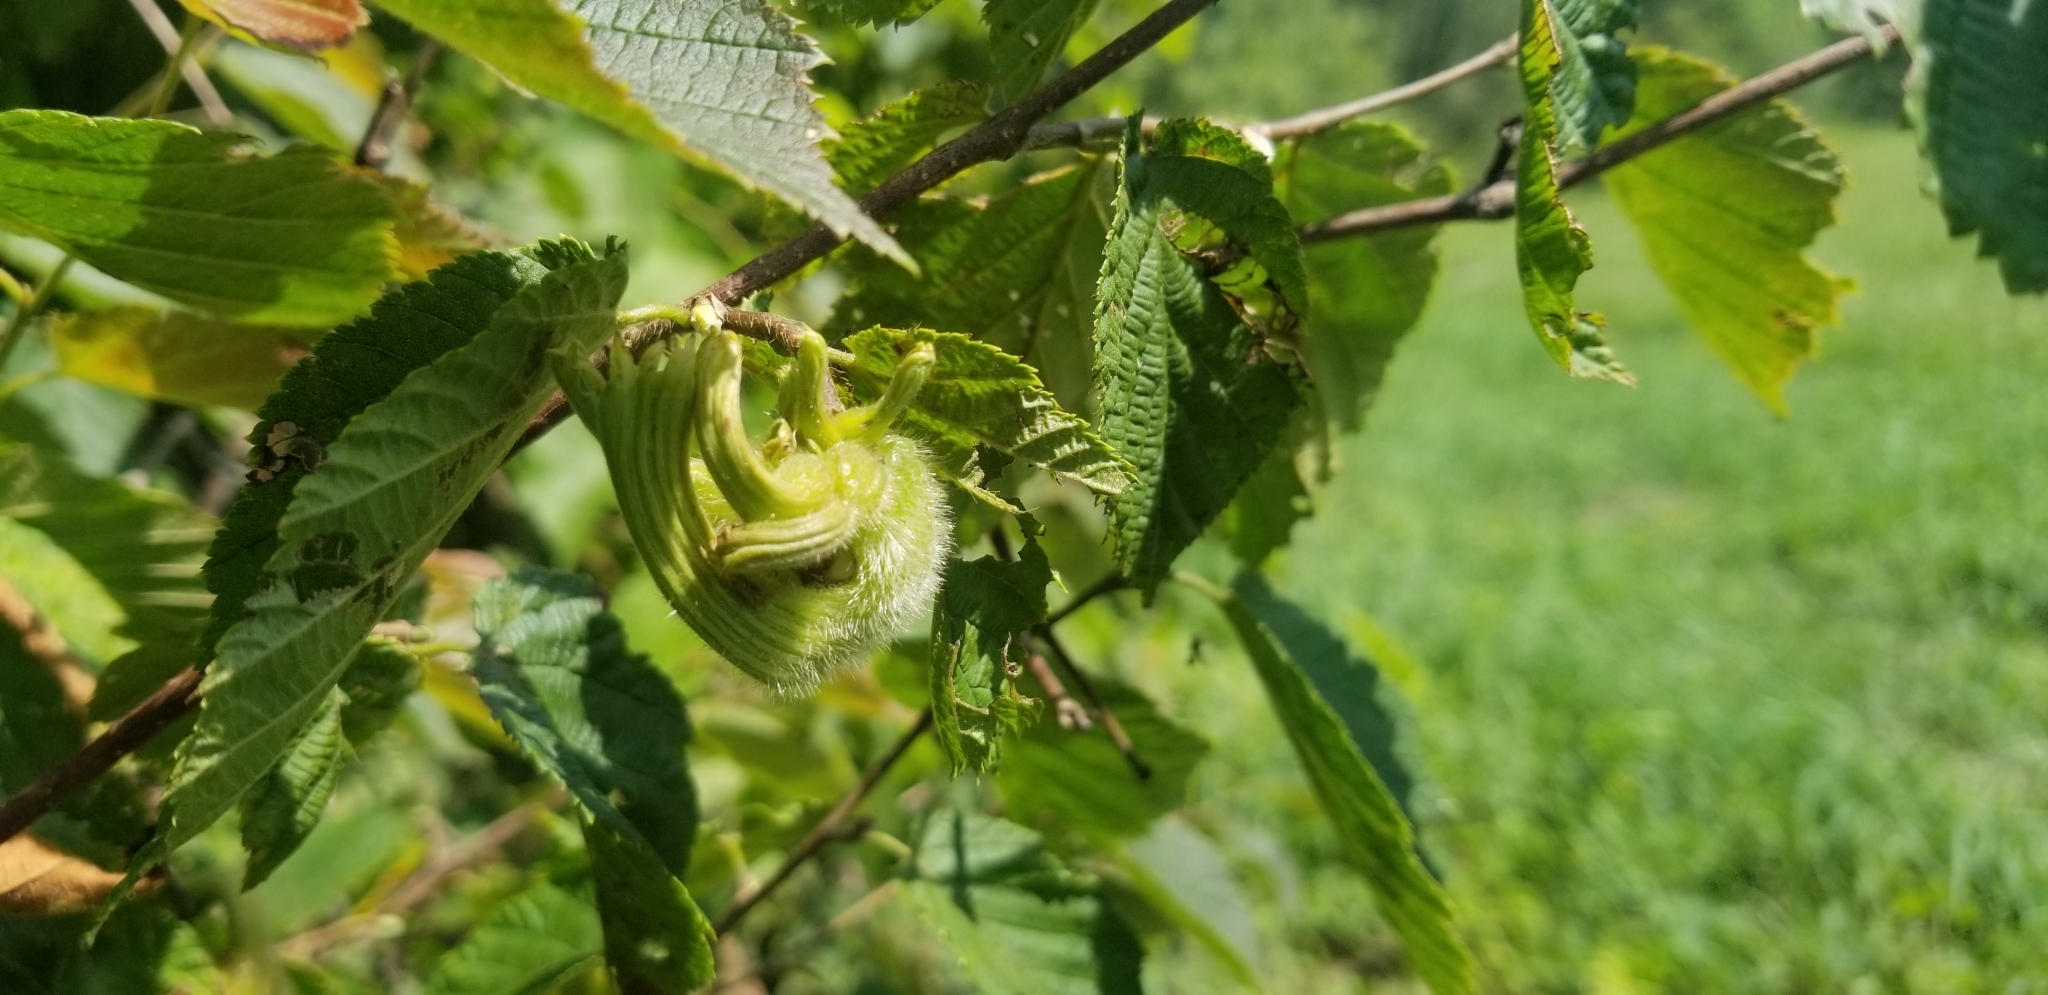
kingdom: Plantae
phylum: Tracheophyta
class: Magnoliopsida
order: Fagales
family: Betulaceae
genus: Corylus
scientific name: Corylus cornuta
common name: Beaked hazel
